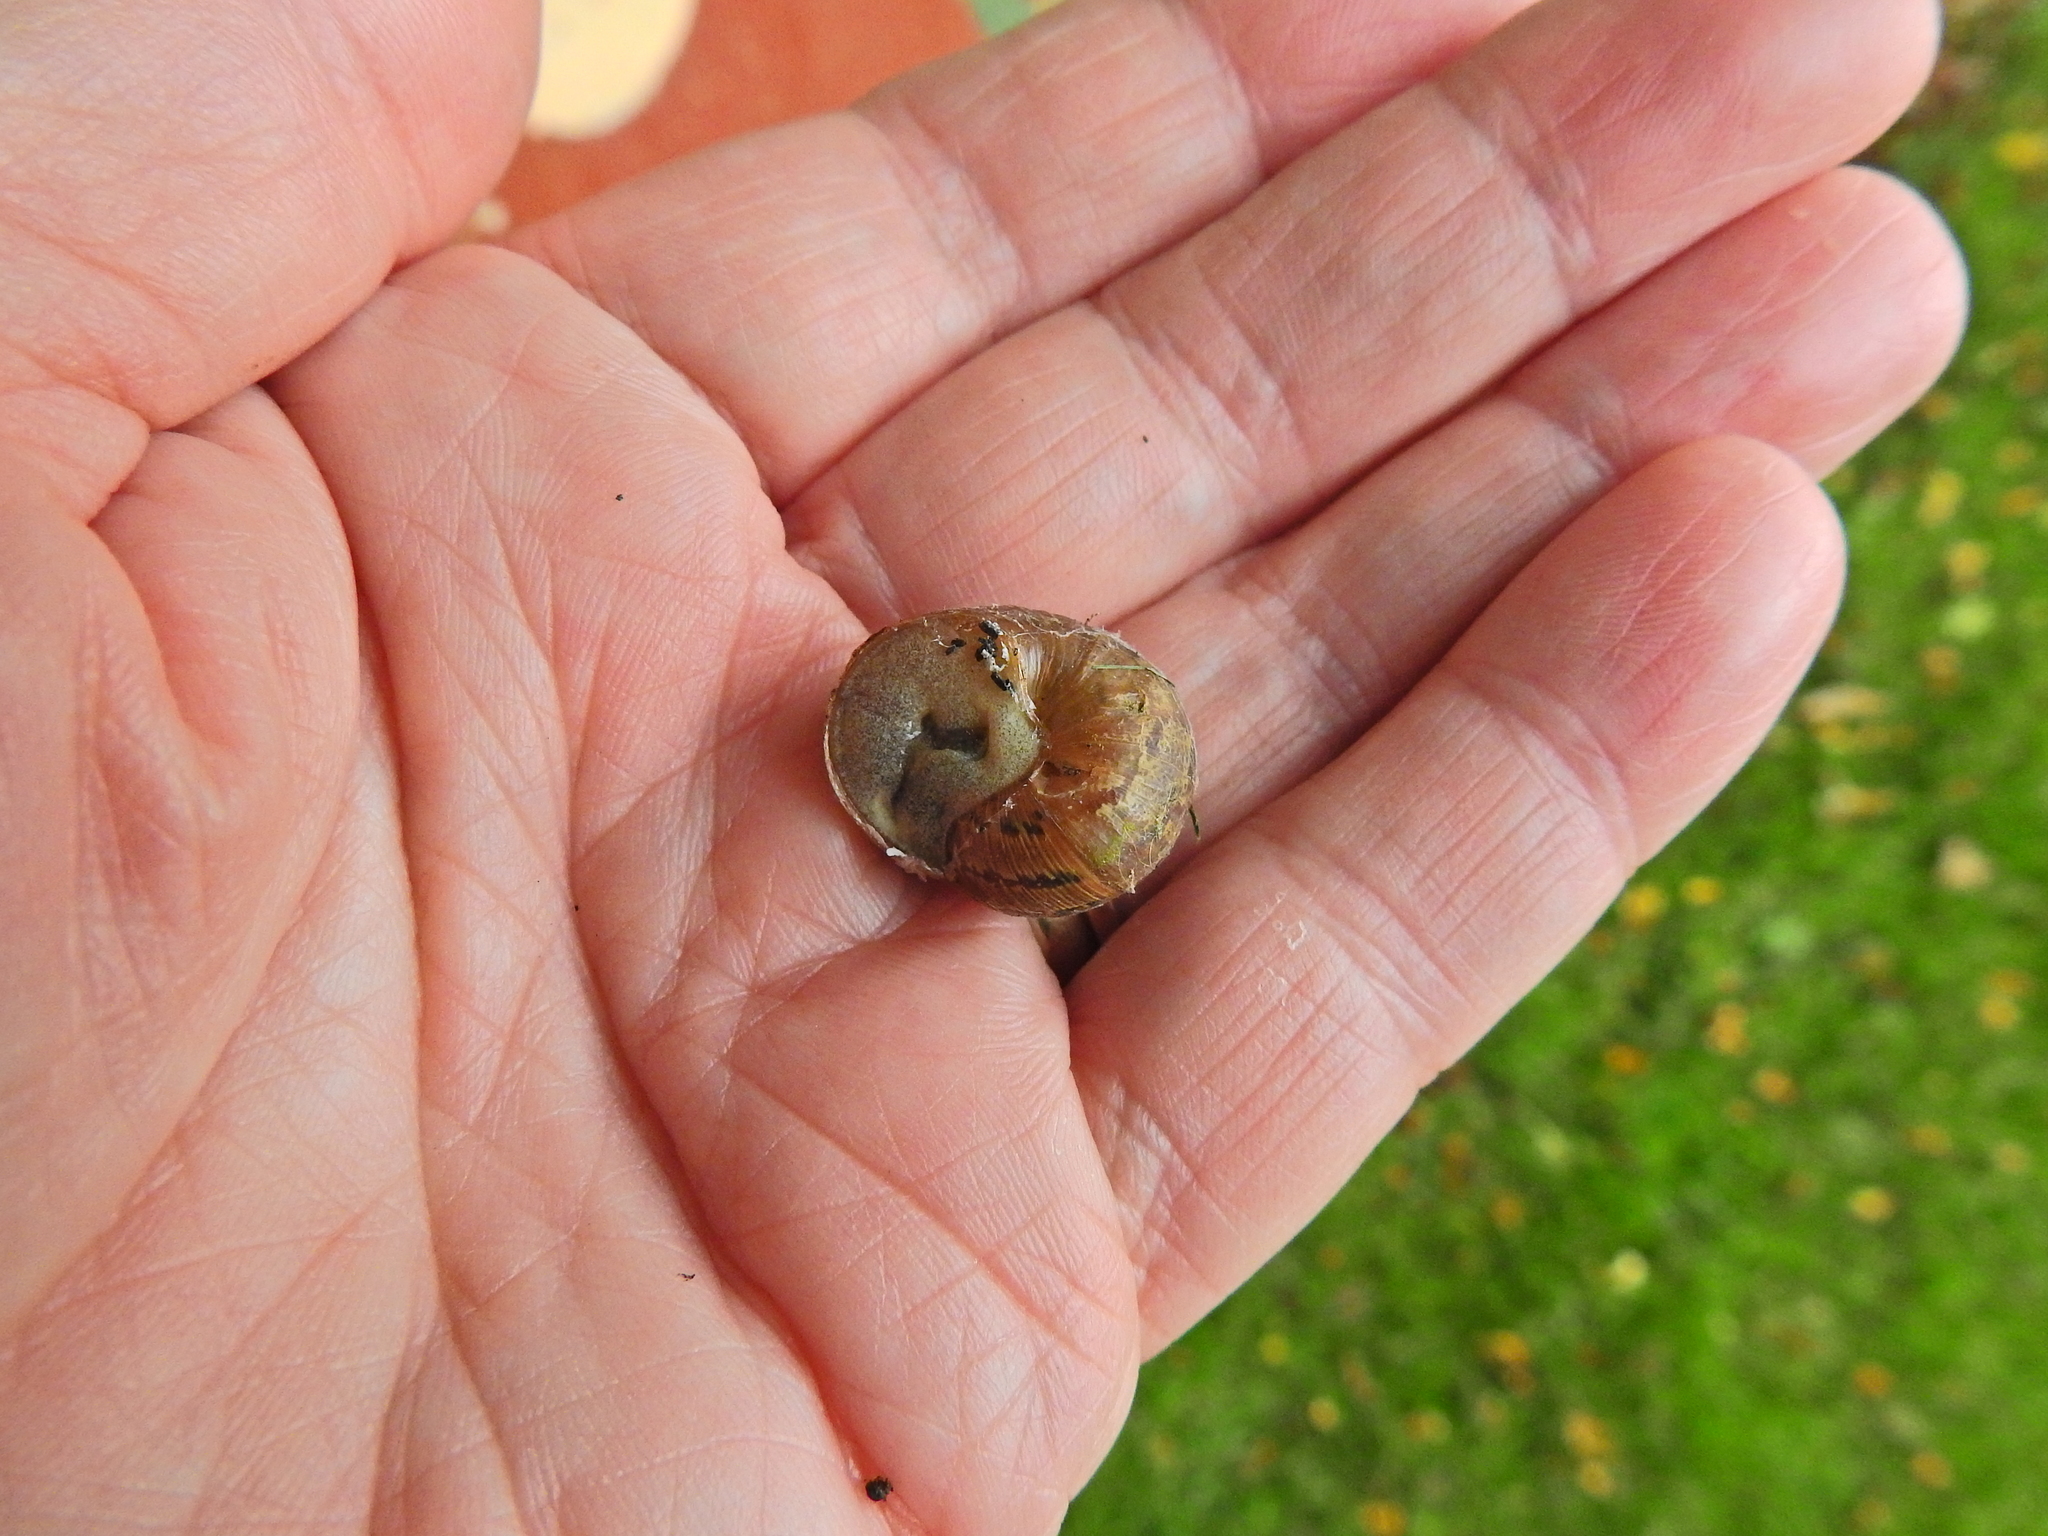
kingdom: Animalia
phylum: Mollusca
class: Gastropoda
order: Stylommatophora
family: Helicidae
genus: Cornu
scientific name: Cornu aspersum
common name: Brown garden snail
